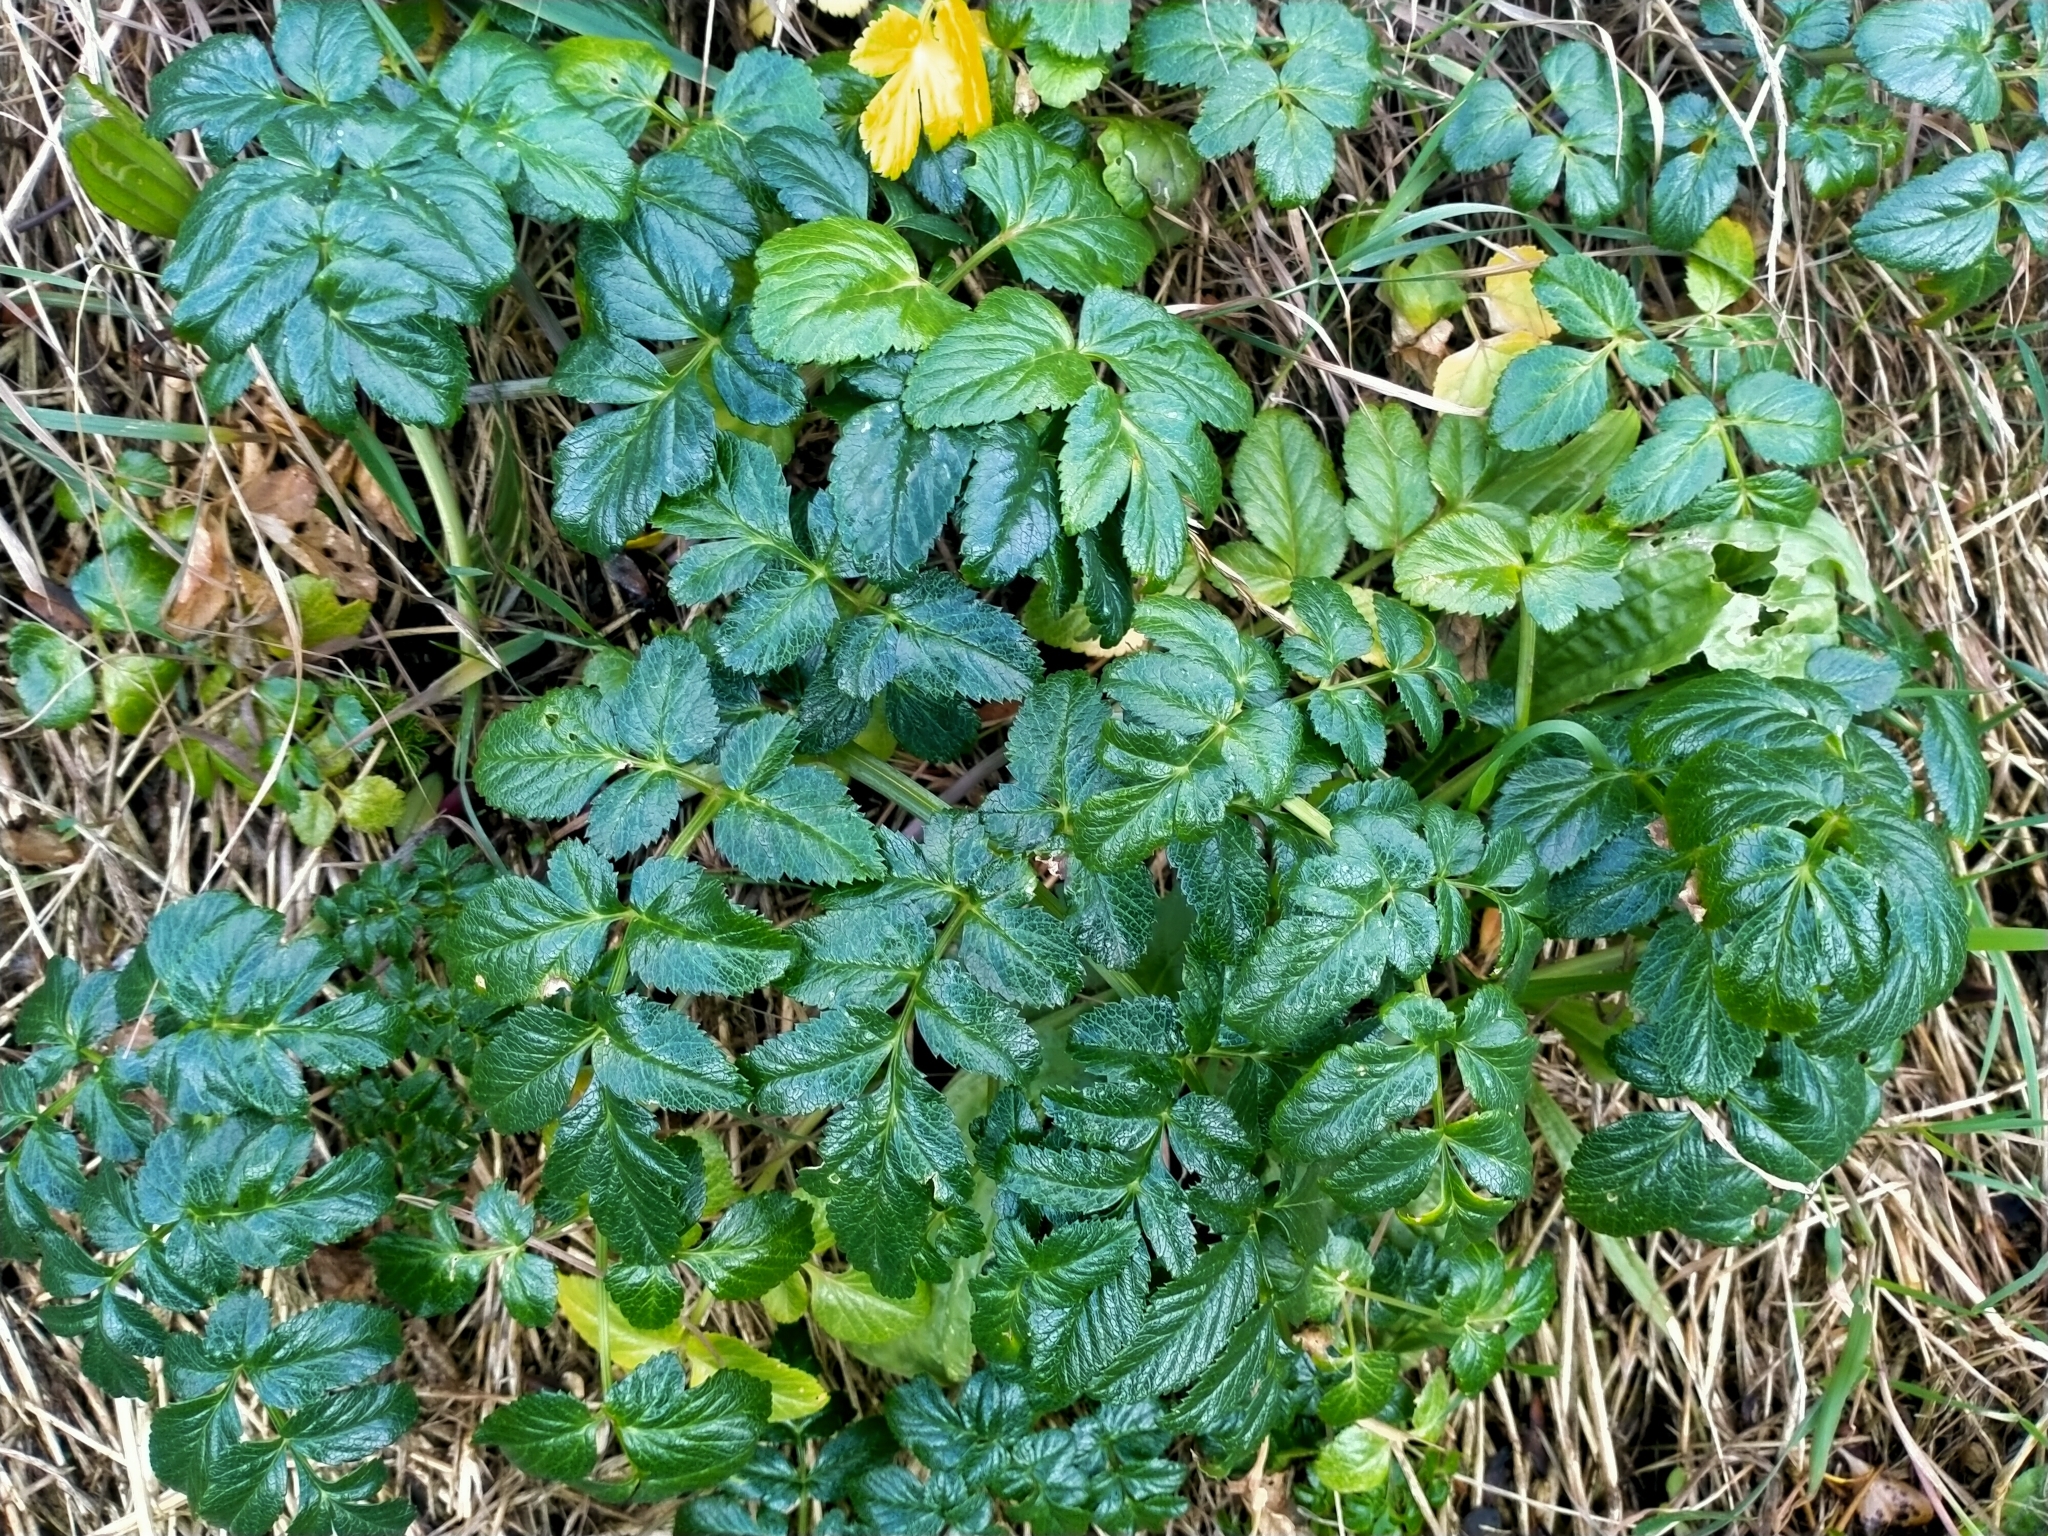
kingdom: Plantae
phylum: Tracheophyta
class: Magnoliopsida
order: Apiales
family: Apiaceae
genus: Angelica
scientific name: Angelica pachycarpa
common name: Portuguese angelica
